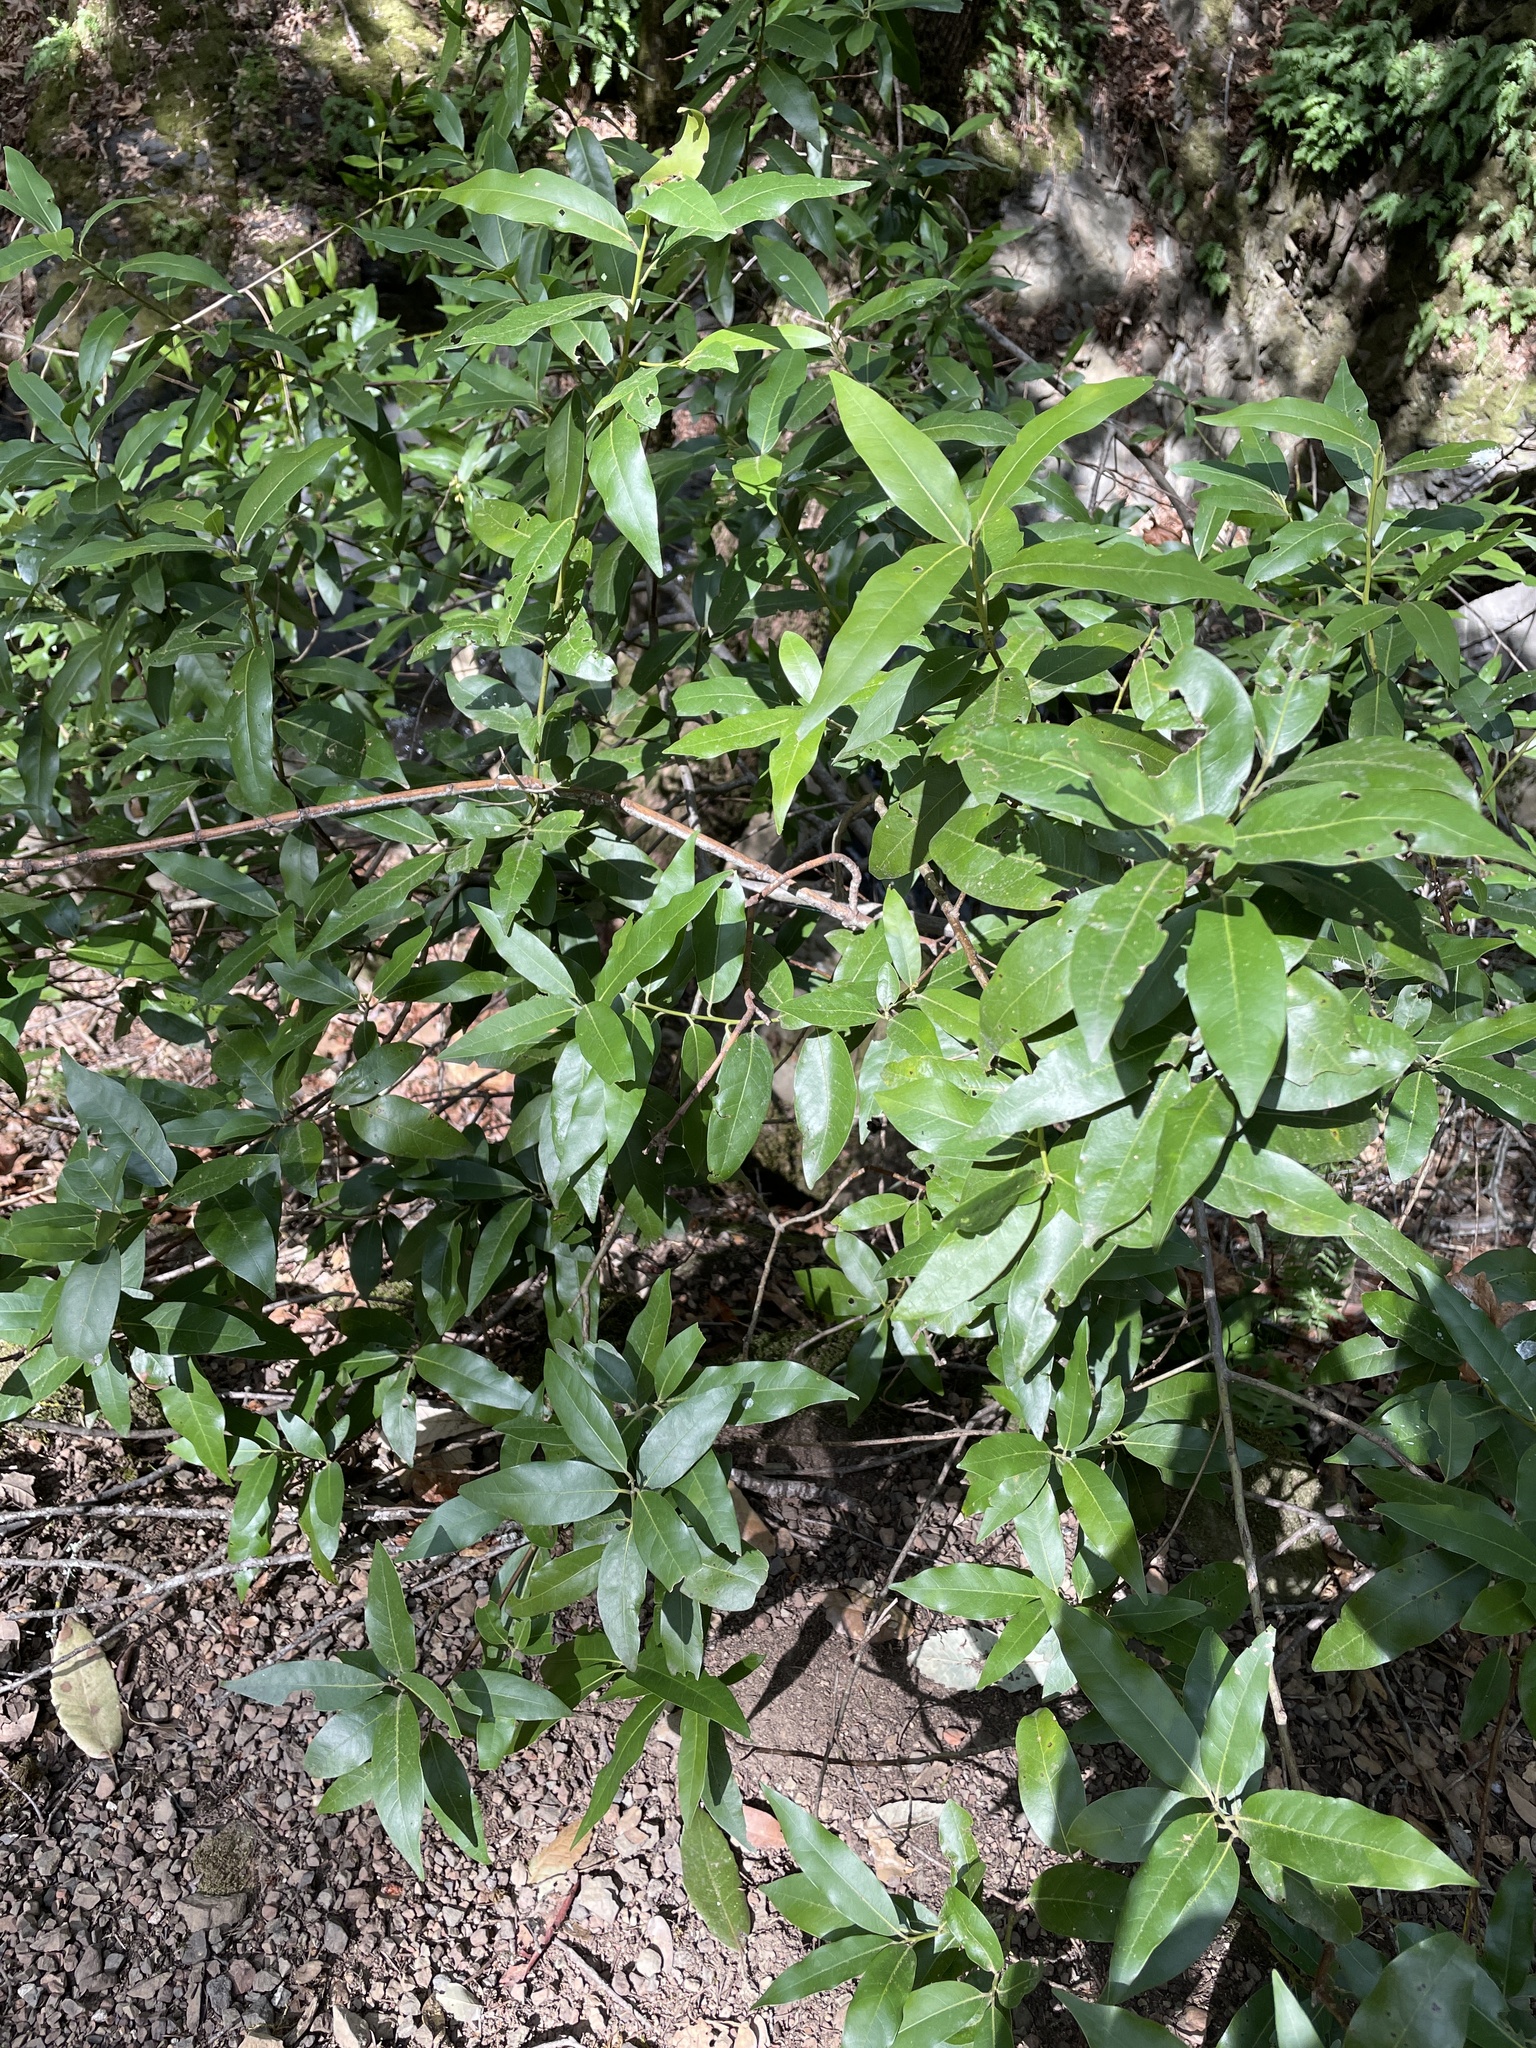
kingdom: Plantae
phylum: Tracheophyta
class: Magnoliopsida
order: Laurales
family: Lauraceae
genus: Umbellularia
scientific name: Umbellularia californica
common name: California bay
